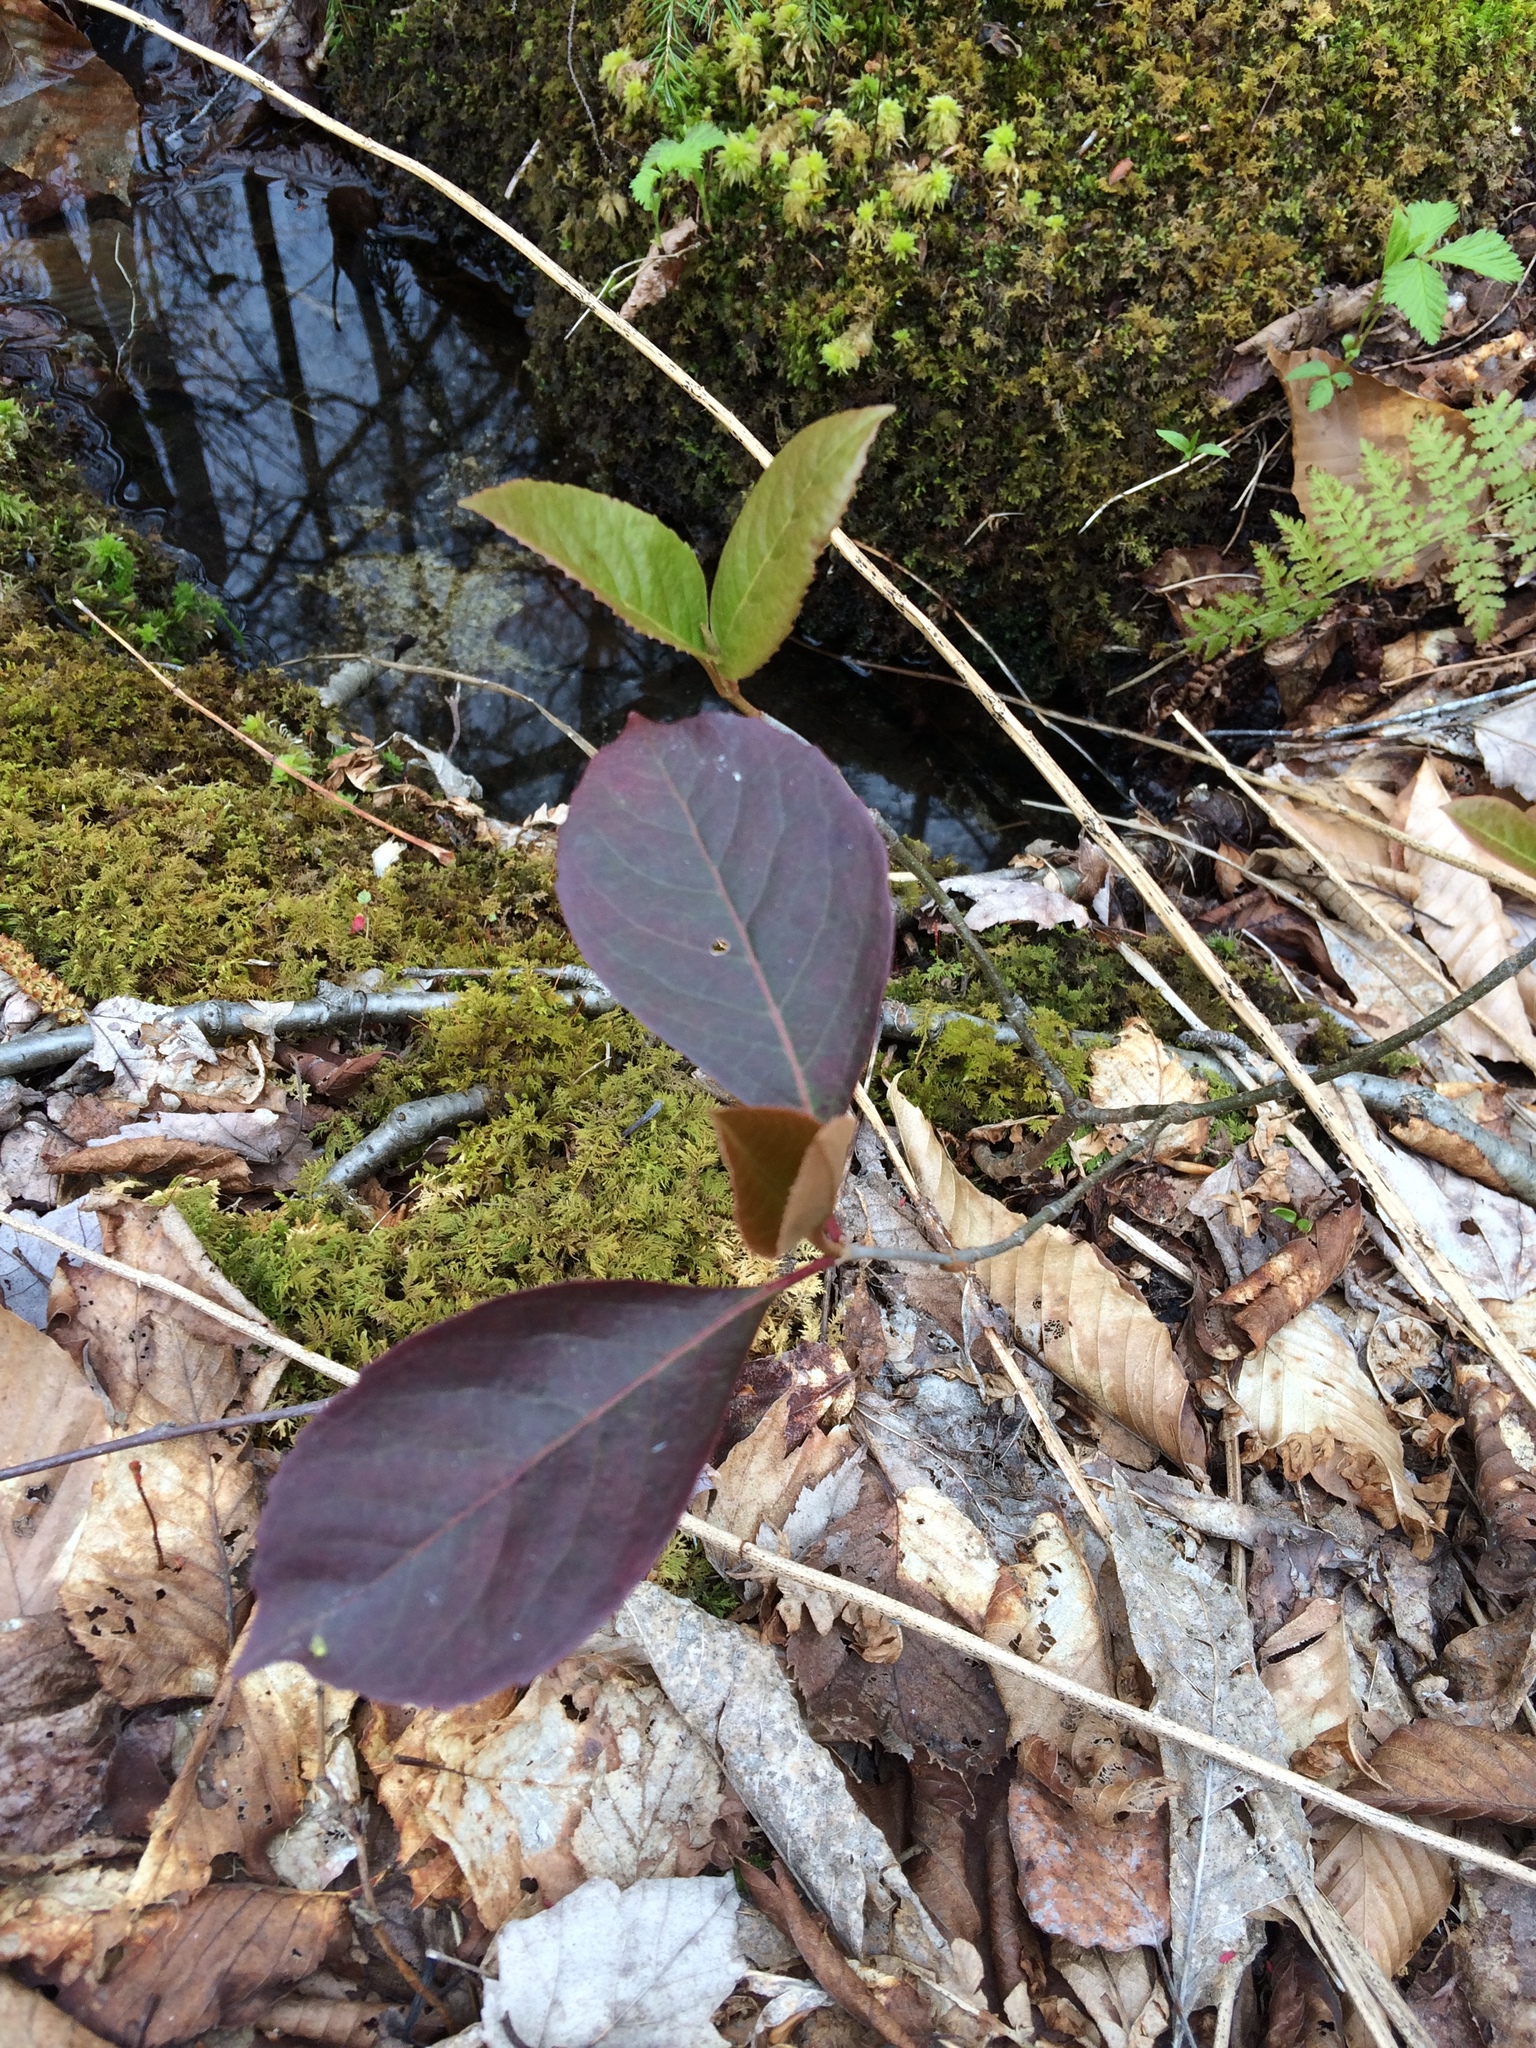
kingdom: Plantae
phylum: Tracheophyta
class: Magnoliopsida
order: Dipsacales
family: Viburnaceae
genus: Viburnum
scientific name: Viburnum cassinoides
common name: Swamp haw
